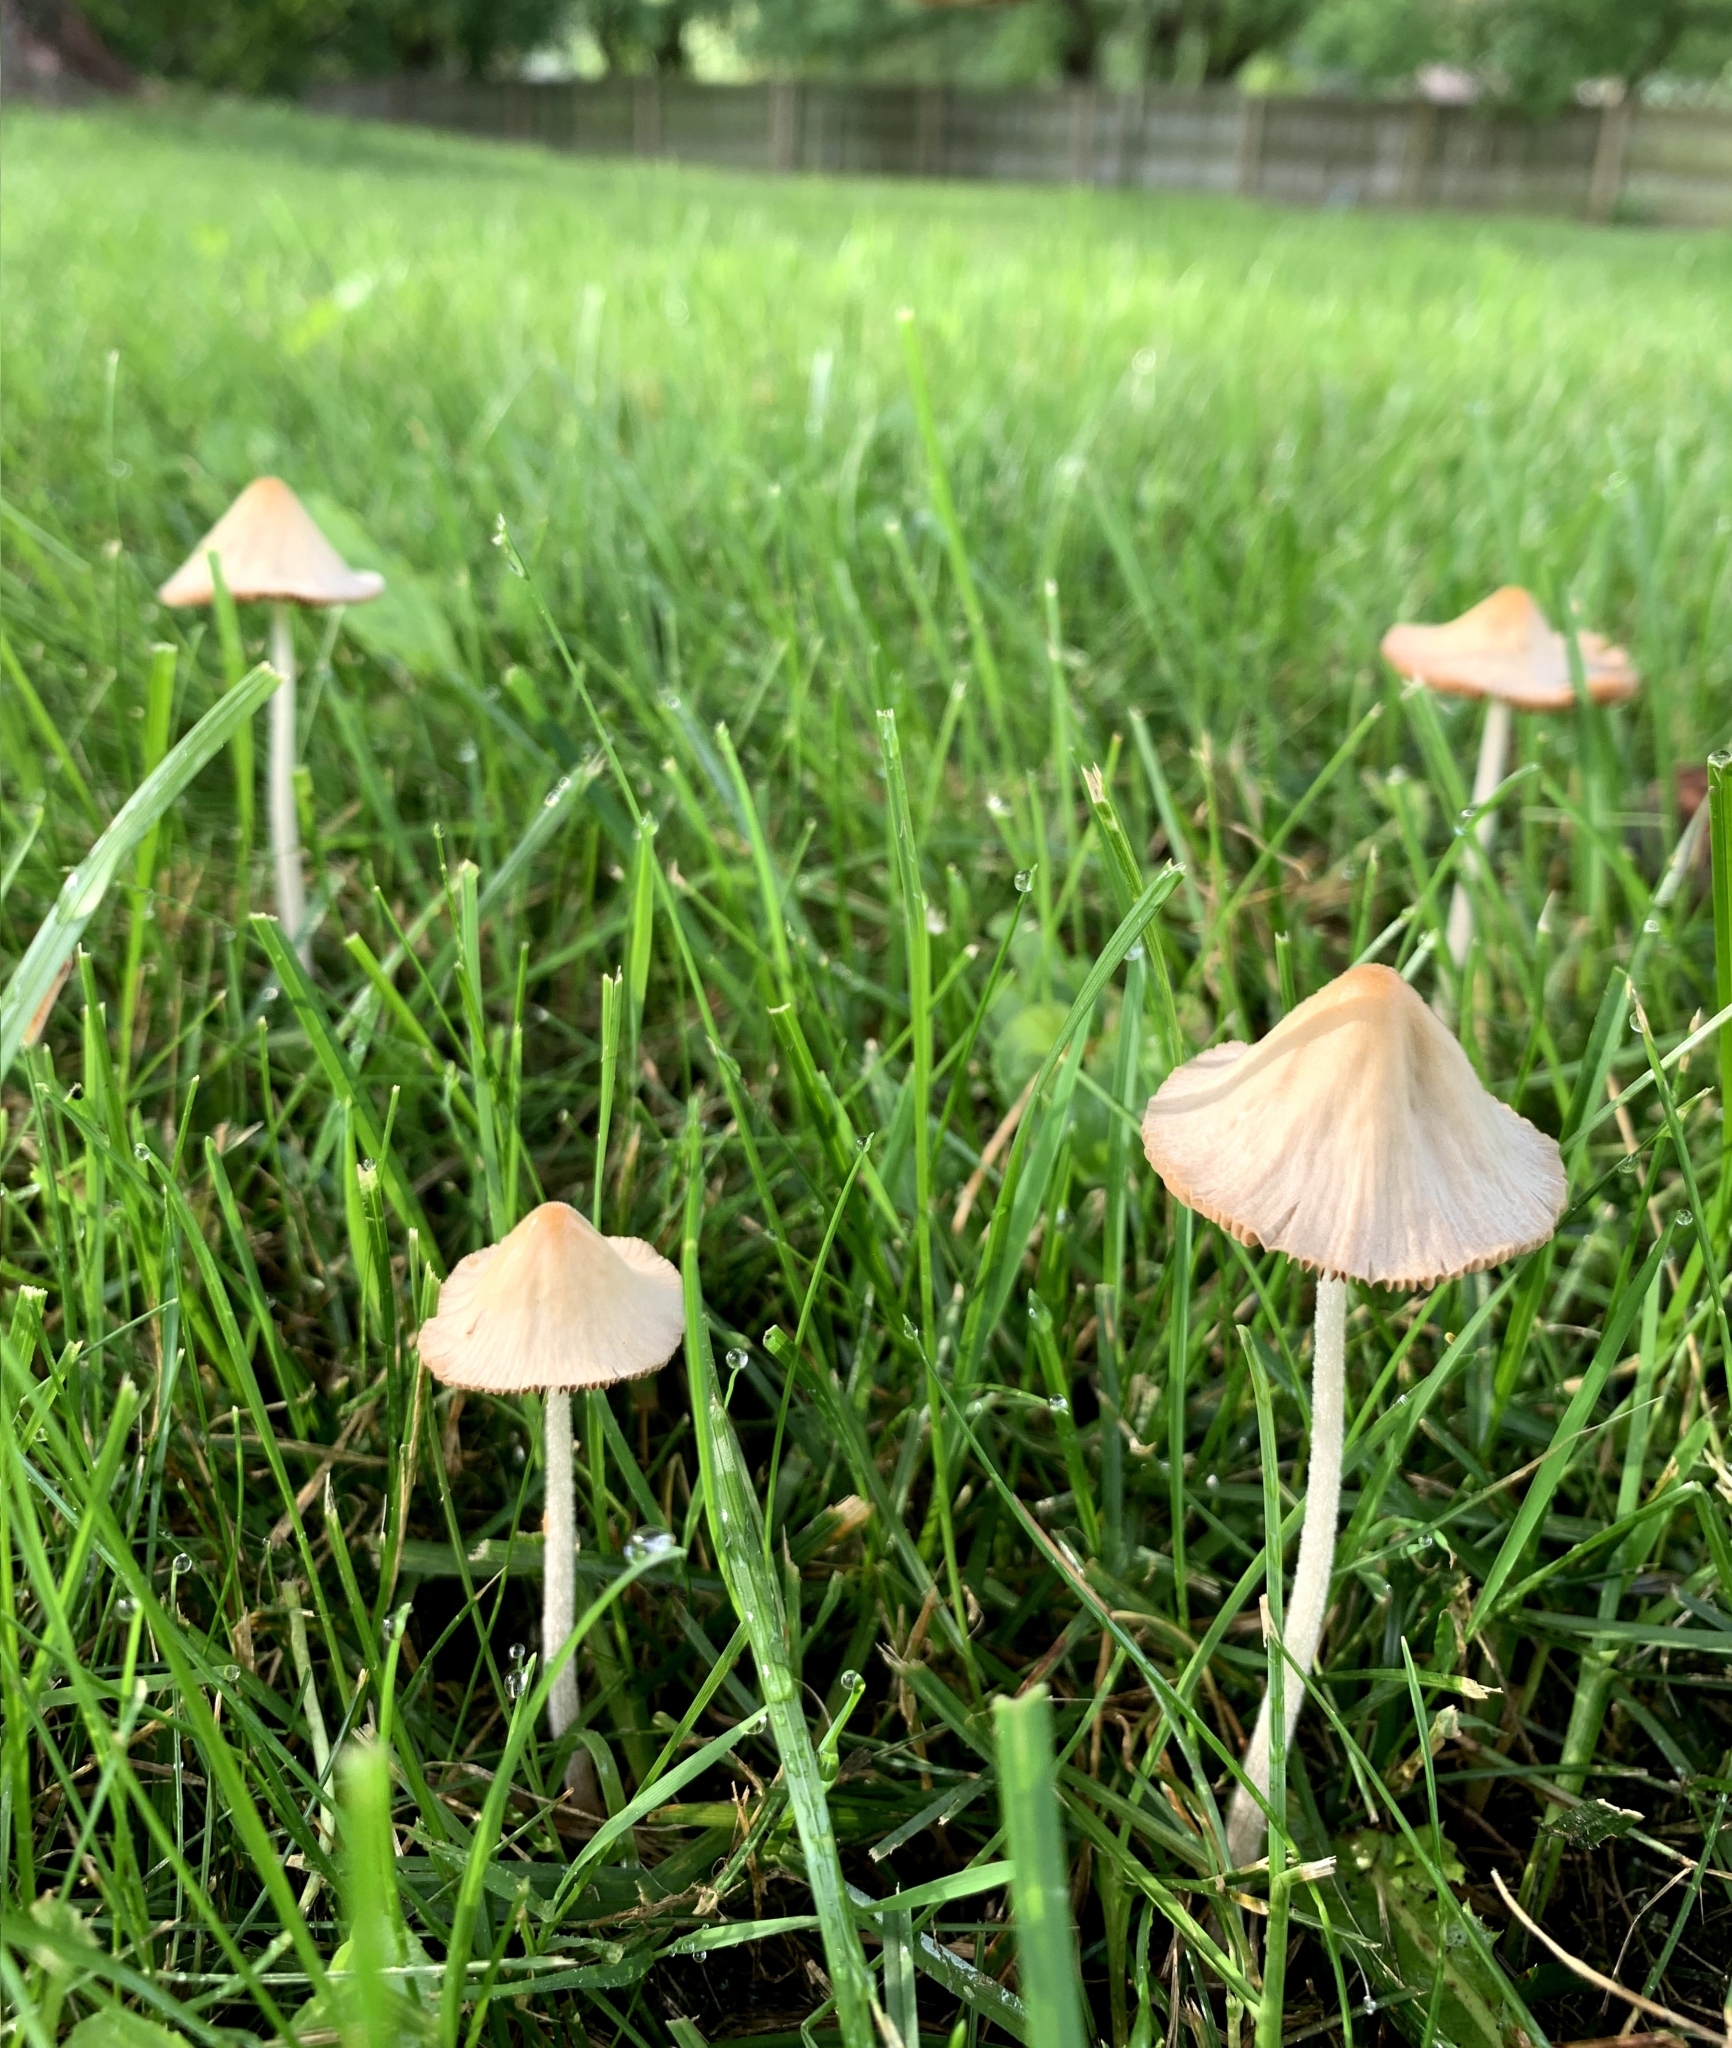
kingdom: Fungi
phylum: Basidiomycota
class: Agaricomycetes
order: Agaricales
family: Bolbitiaceae
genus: Conocybe
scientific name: Conocybe apala
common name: Milky conecap
